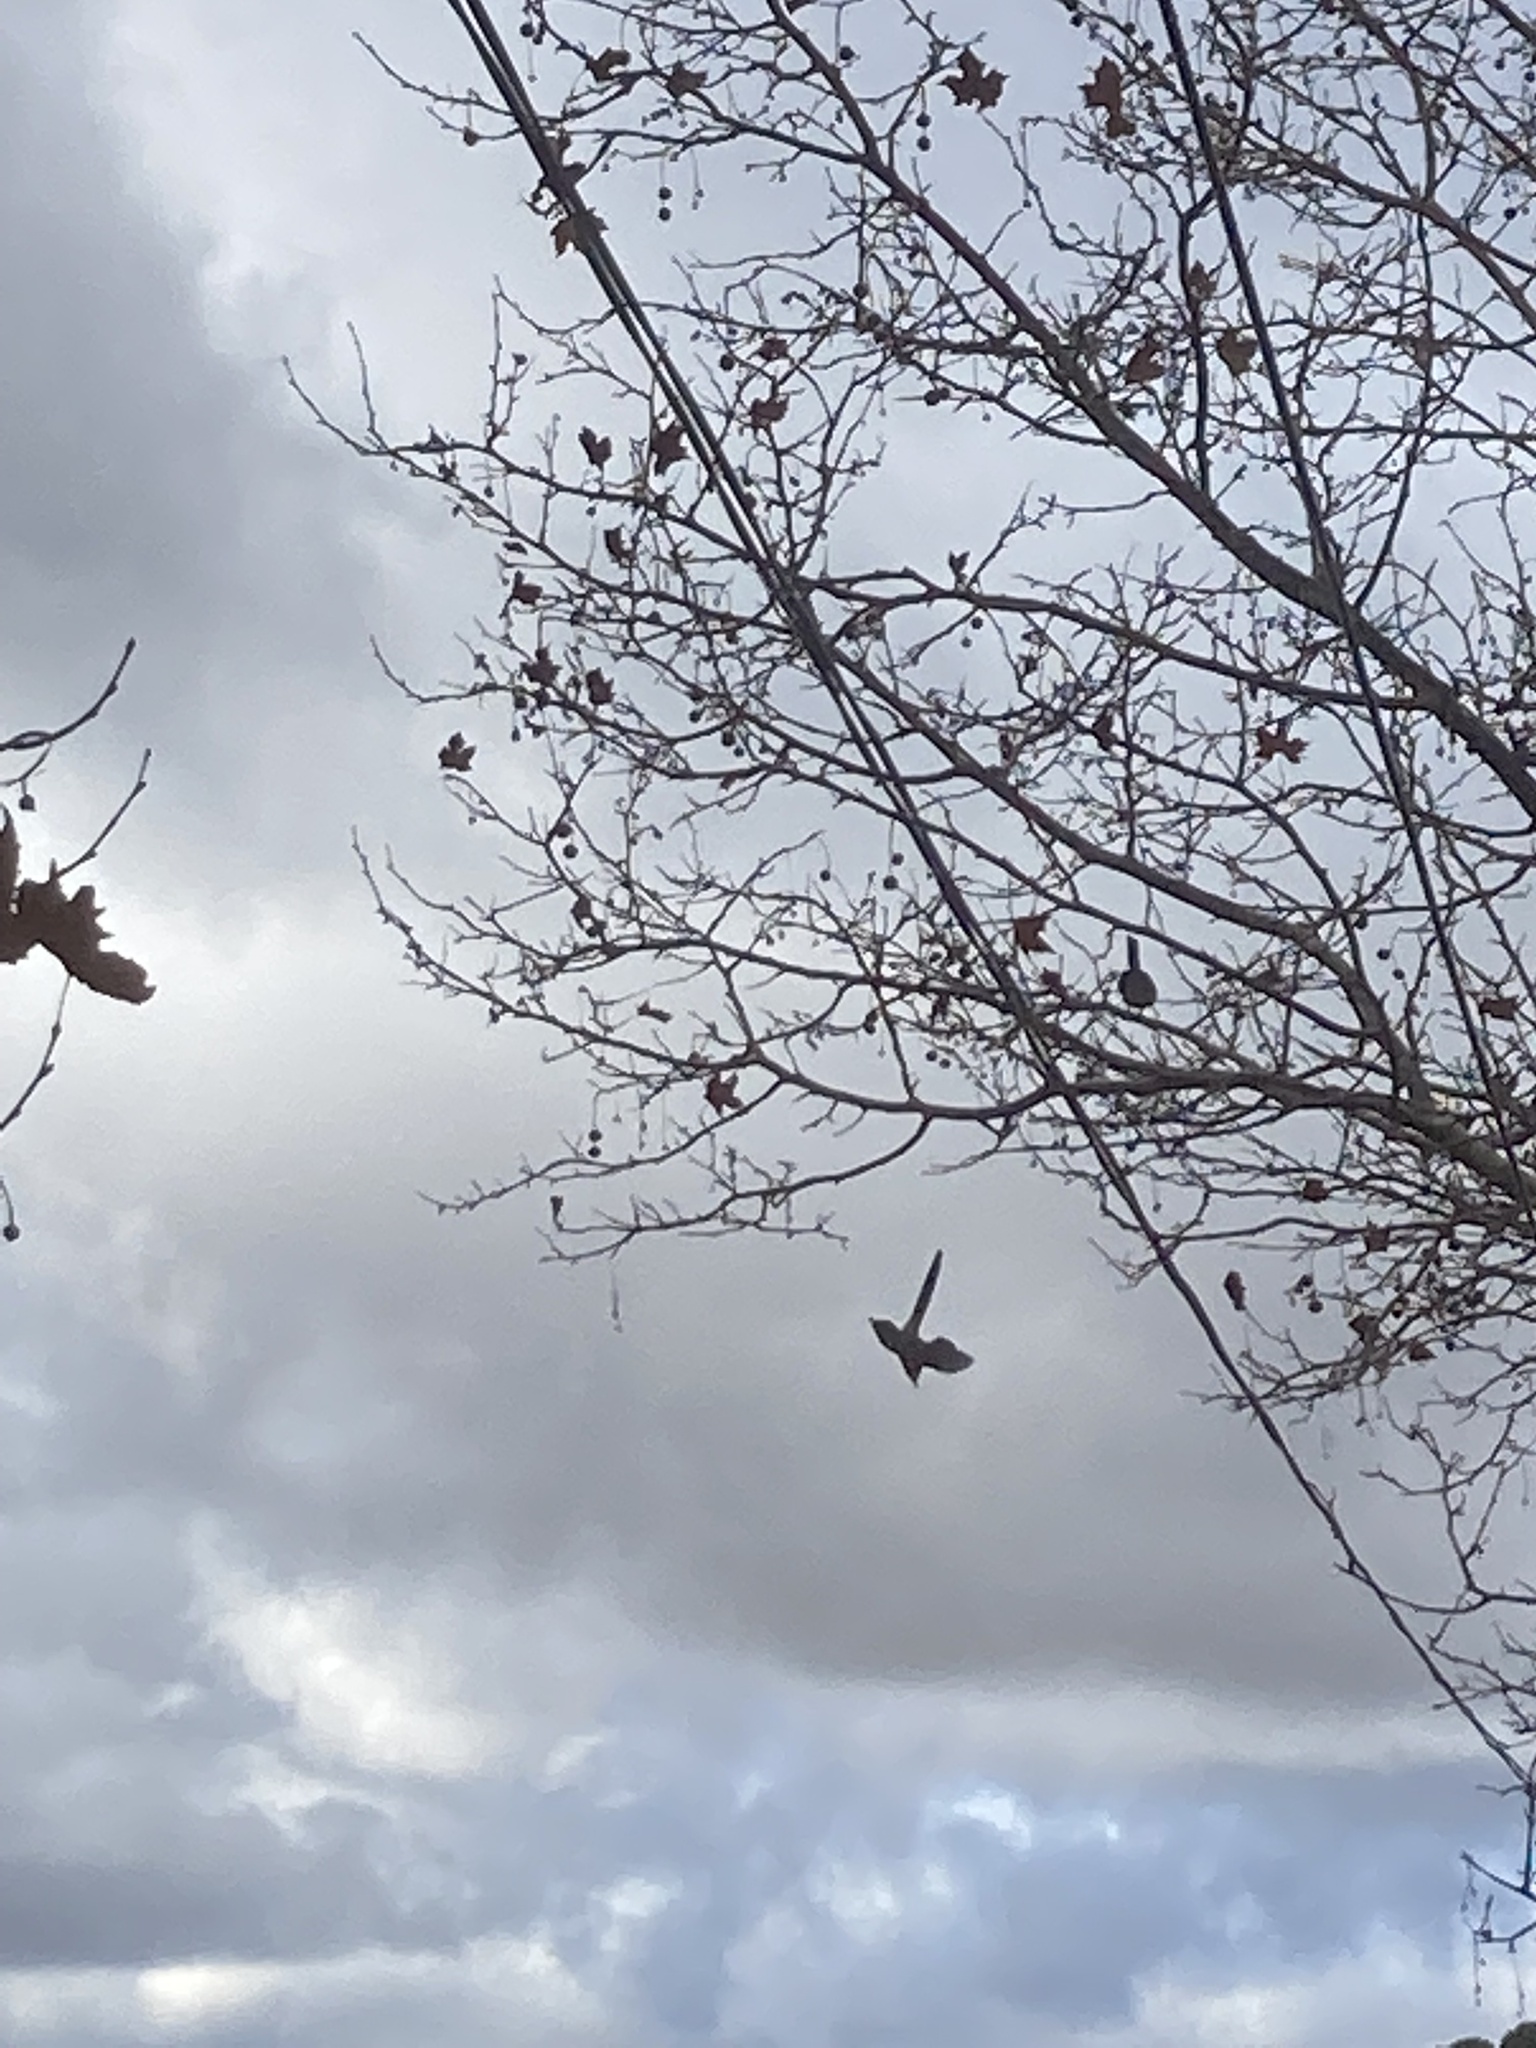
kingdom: Animalia
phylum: Chordata
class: Aves
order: Passeriformes
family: Corvidae
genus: Cyanopica
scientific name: Cyanopica cooki
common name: Iberian magpie
